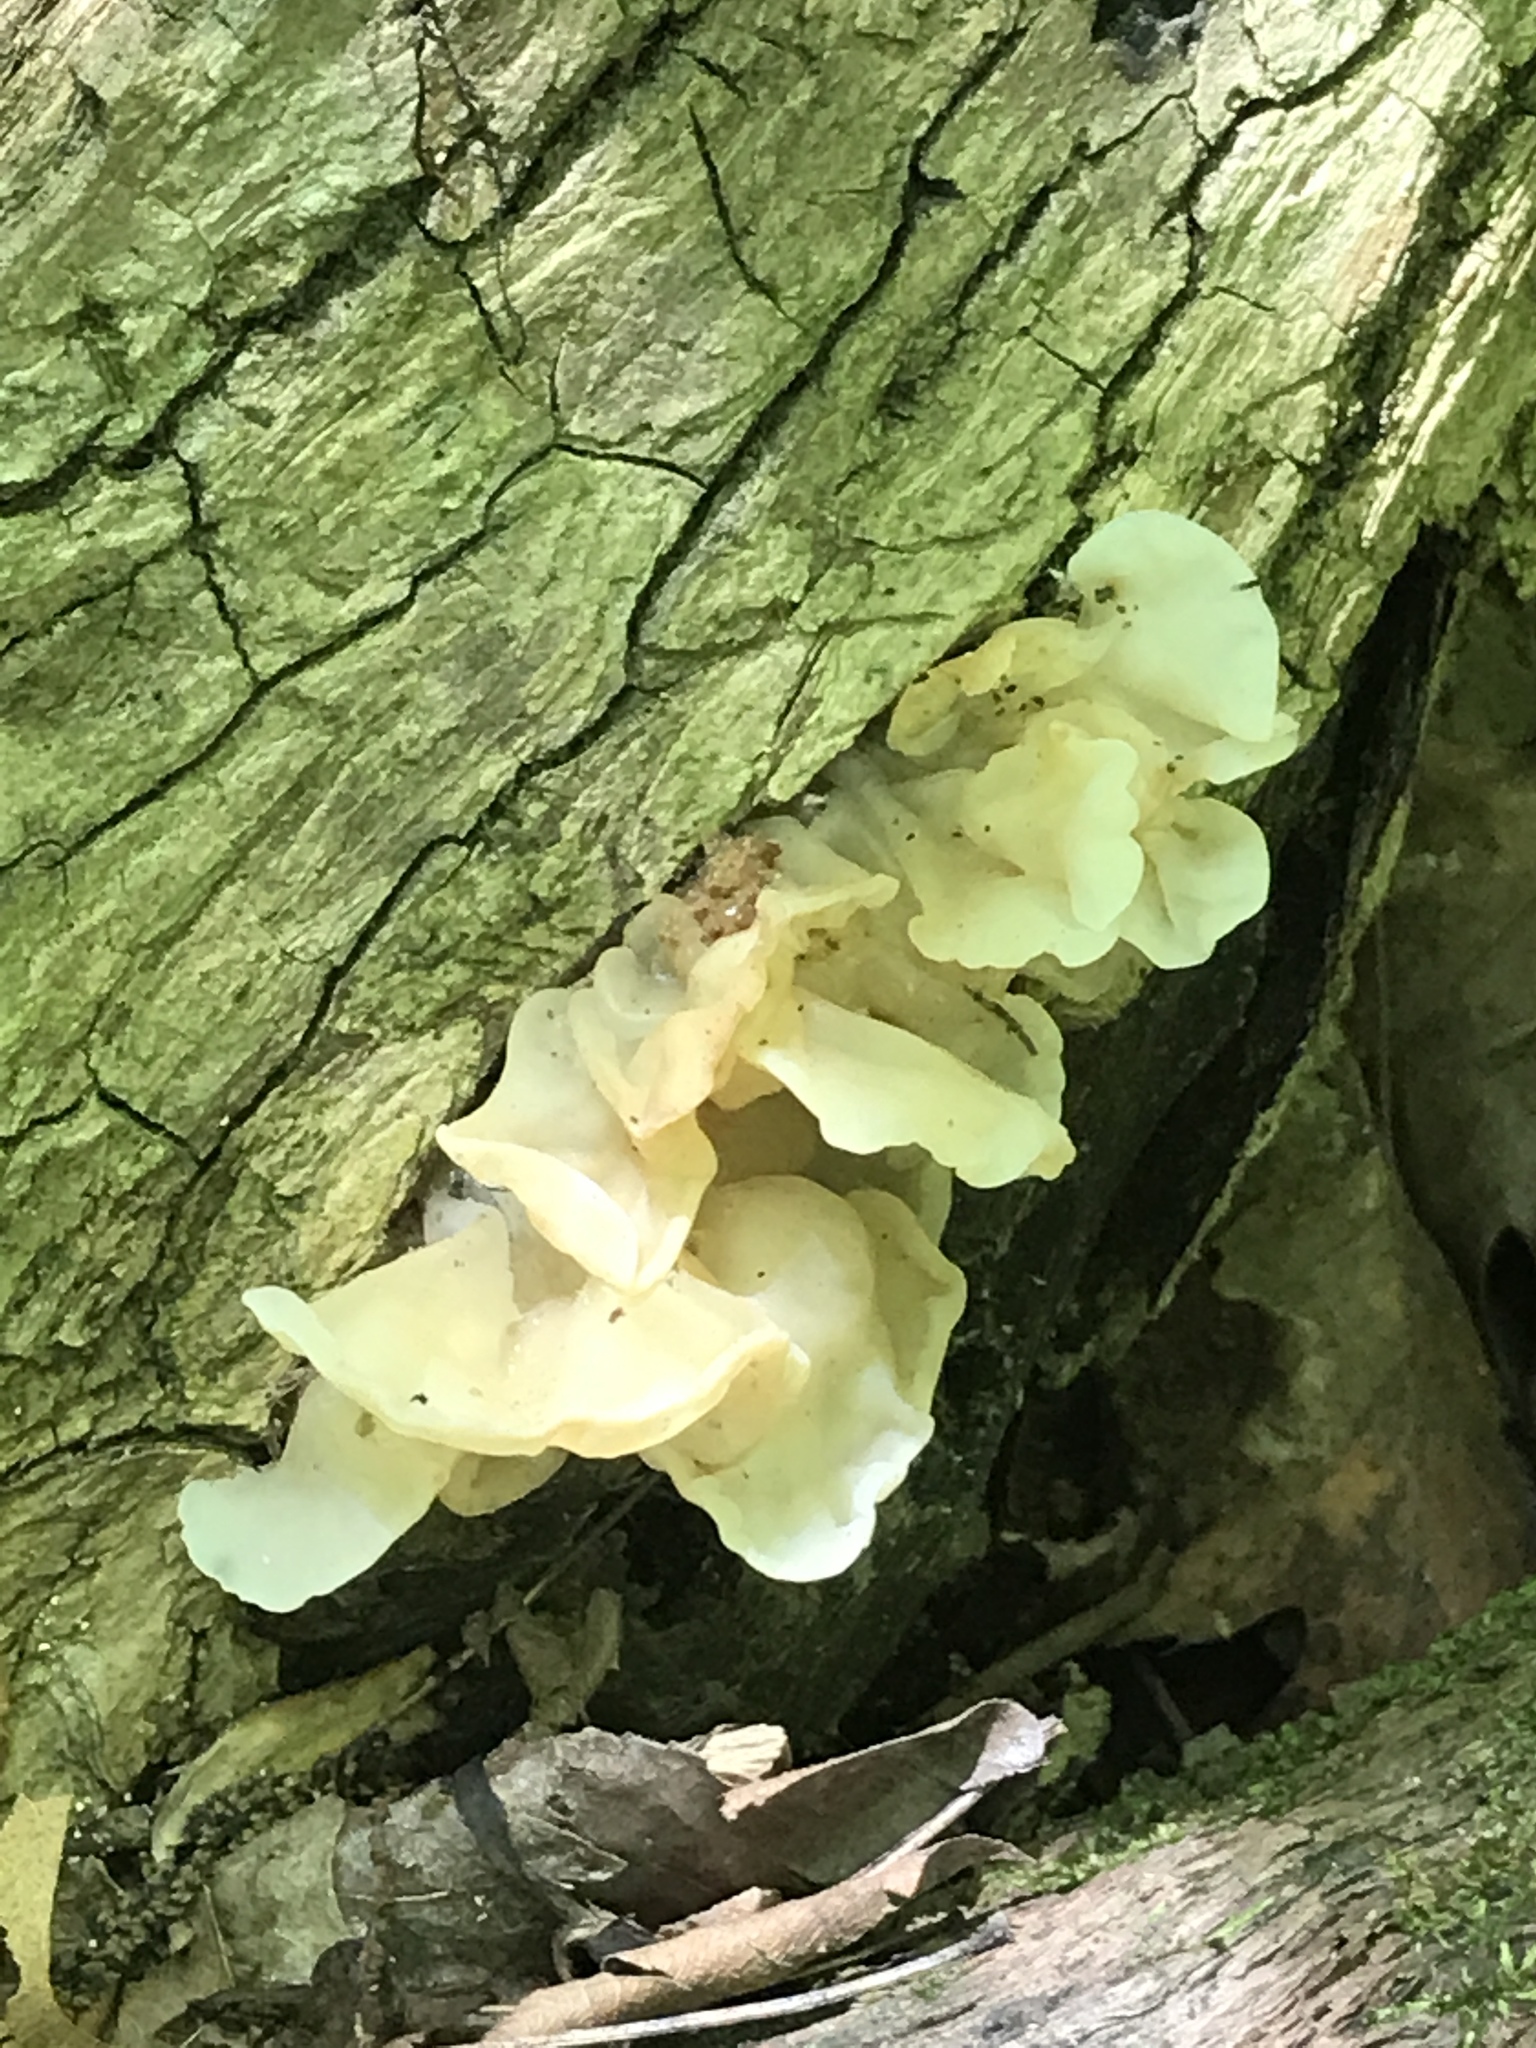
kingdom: Fungi
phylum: Basidiomycota
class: Agaricomycetes
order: Auriculariales
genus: Ductifera
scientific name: Ductifera pululahuana
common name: White jelly fungus
